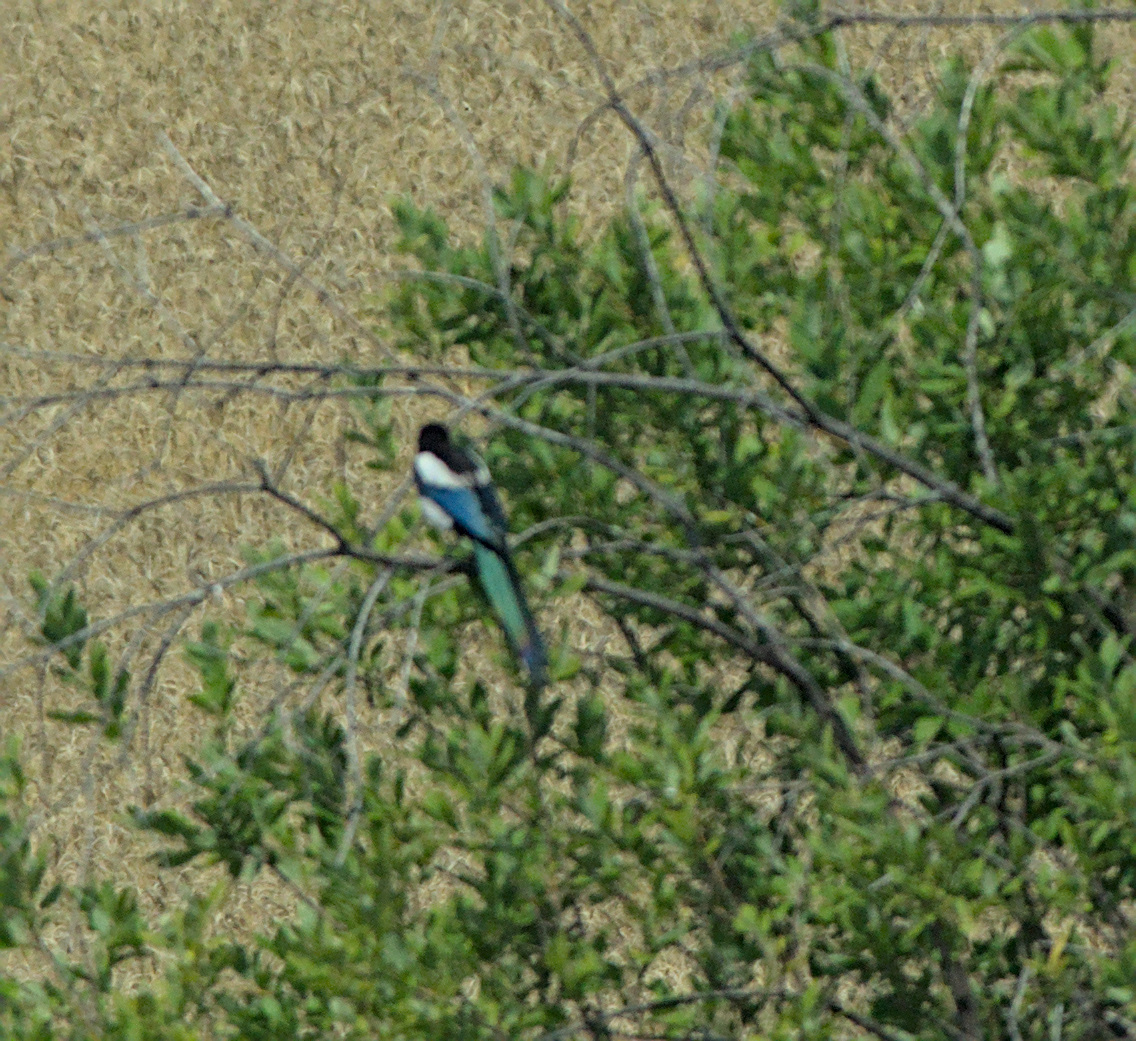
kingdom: Animalia
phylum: Chordata
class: Aves
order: Passeriformes
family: Corvidae
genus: Pica
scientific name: Pica pica
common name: Eurasian magpie
